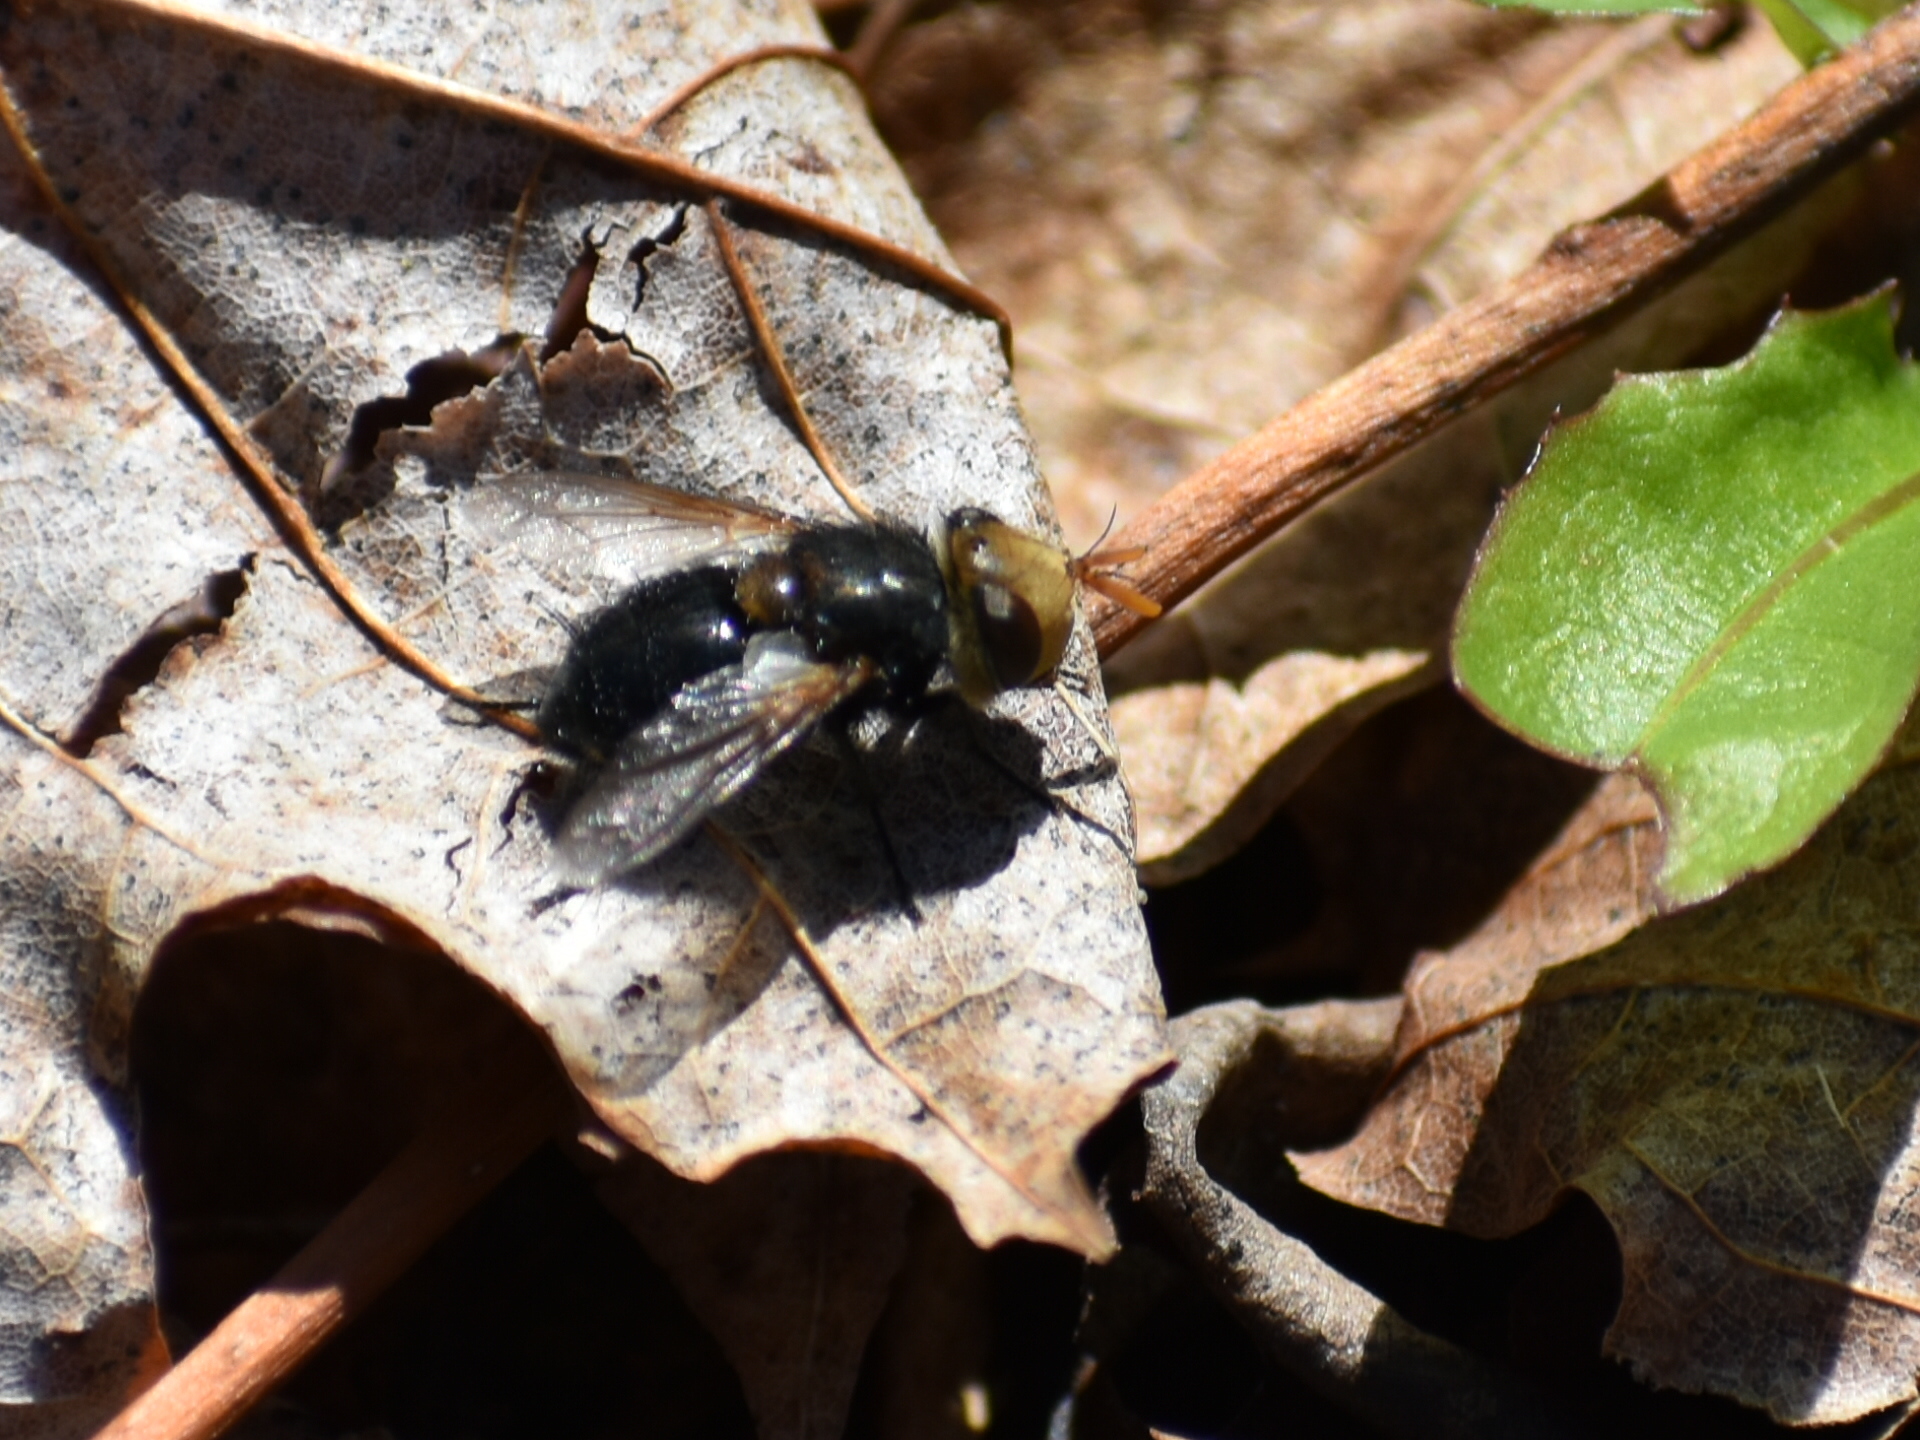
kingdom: Animalia
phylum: Arthropoda
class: Insecta
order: Diptera
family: Tachinidae
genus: Gonia
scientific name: Gonia sagax
